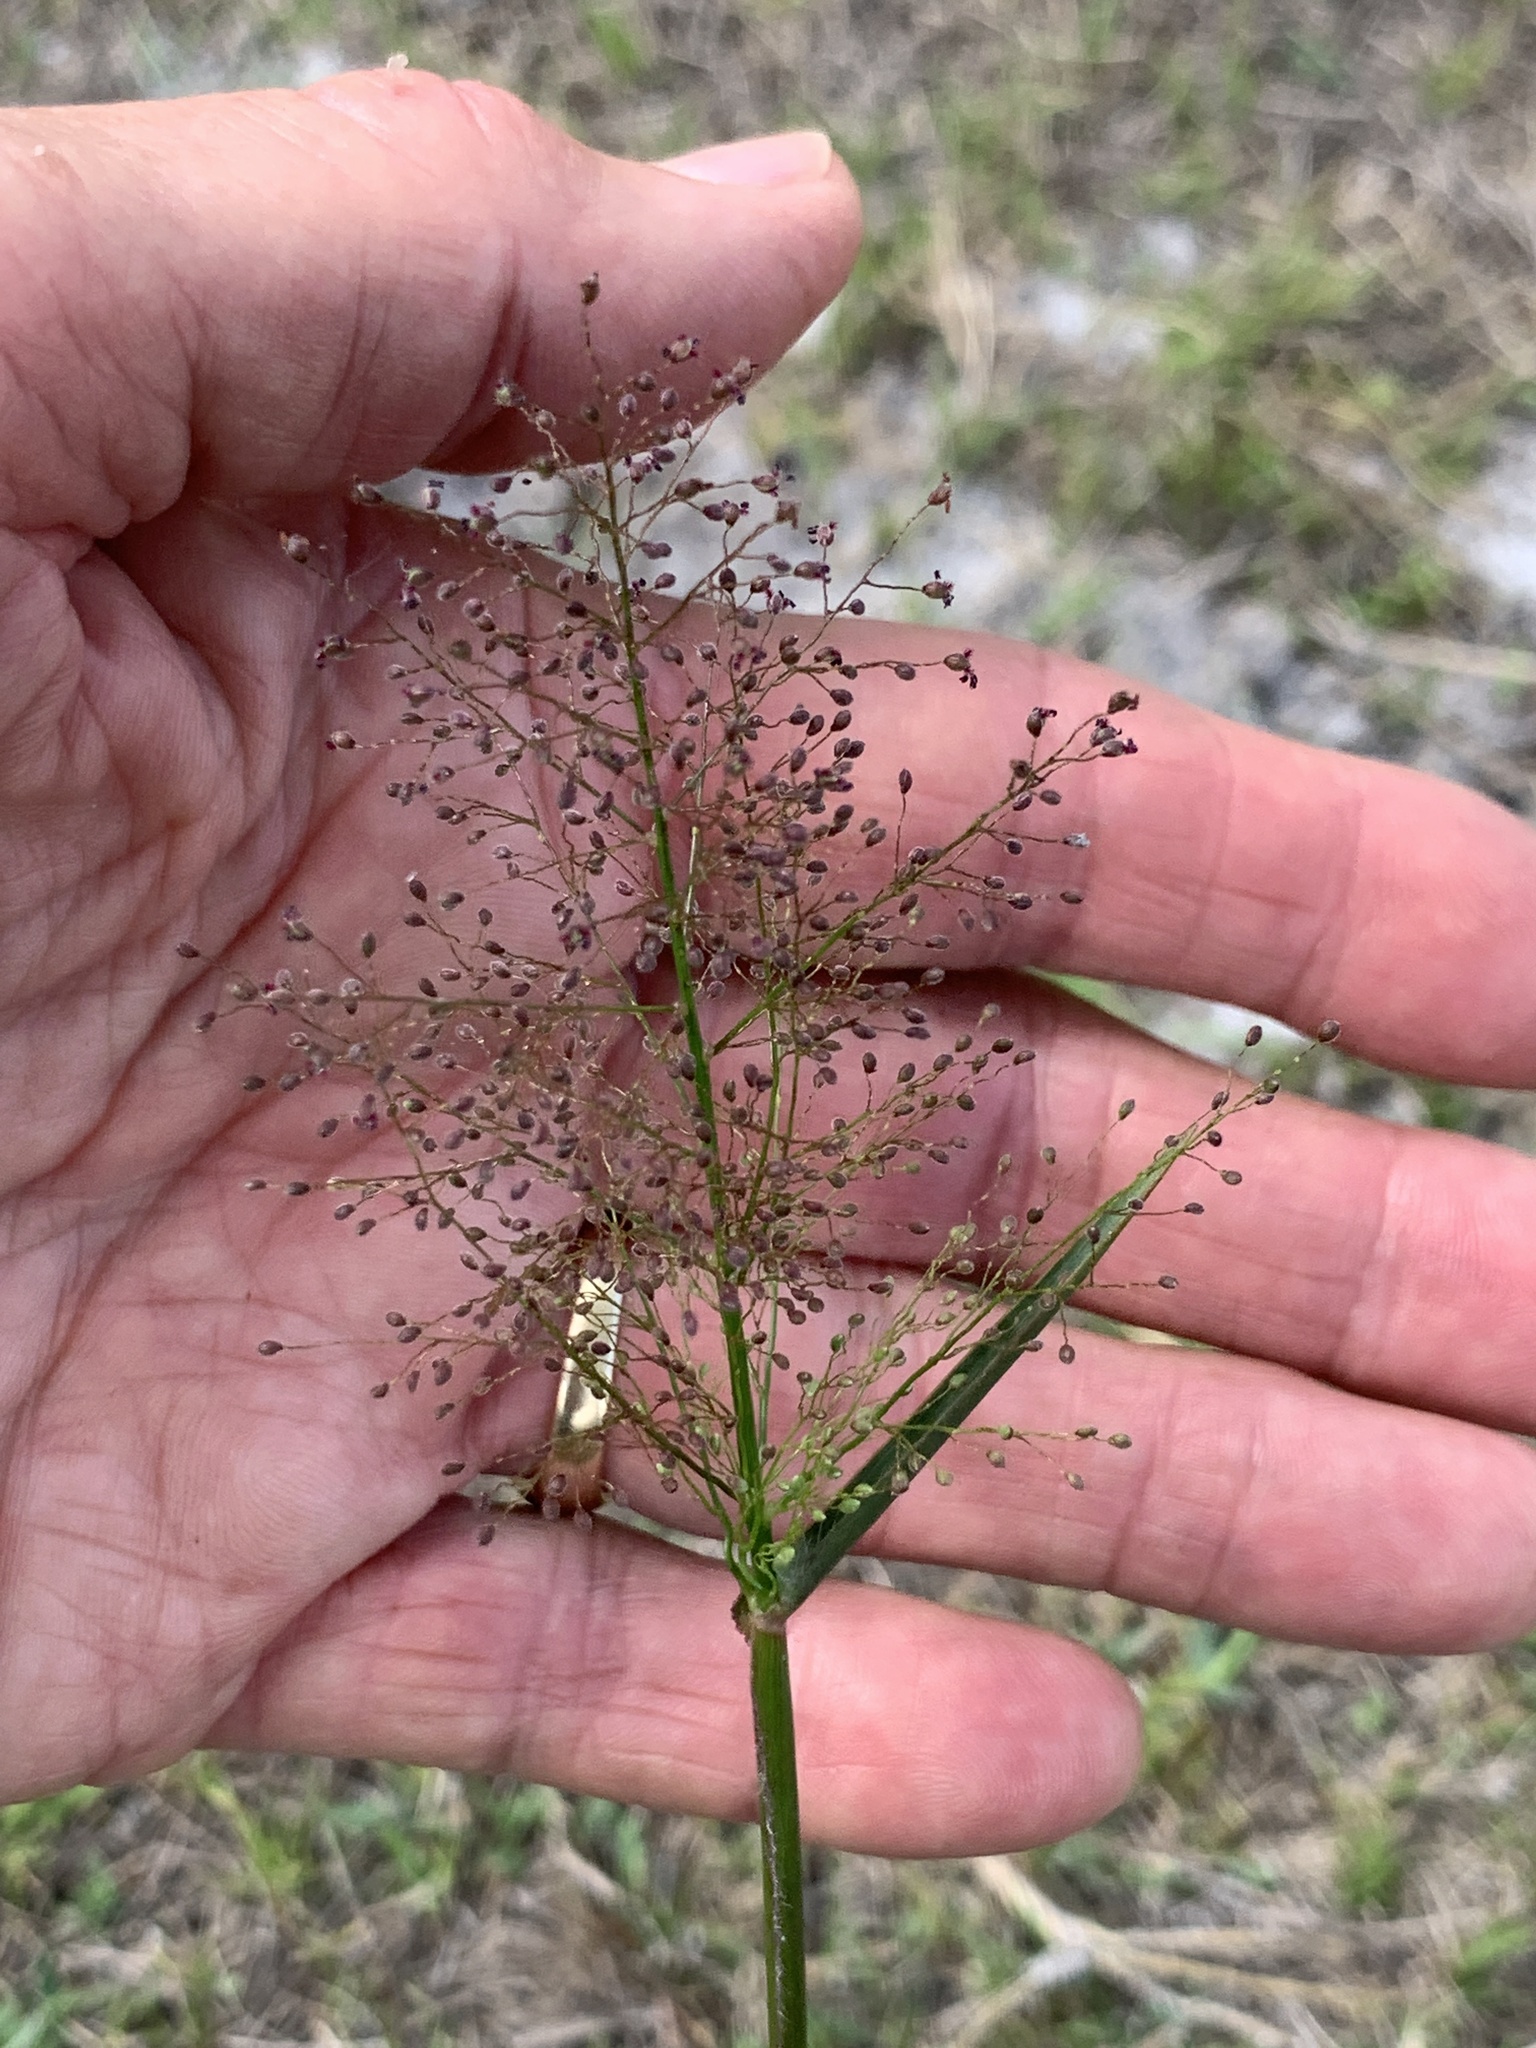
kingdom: Plantae
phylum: Tracheophyta
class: Liliopsida
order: Poales
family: Poaceae
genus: Dichanthelium
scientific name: Dichanthelium erectifolium
